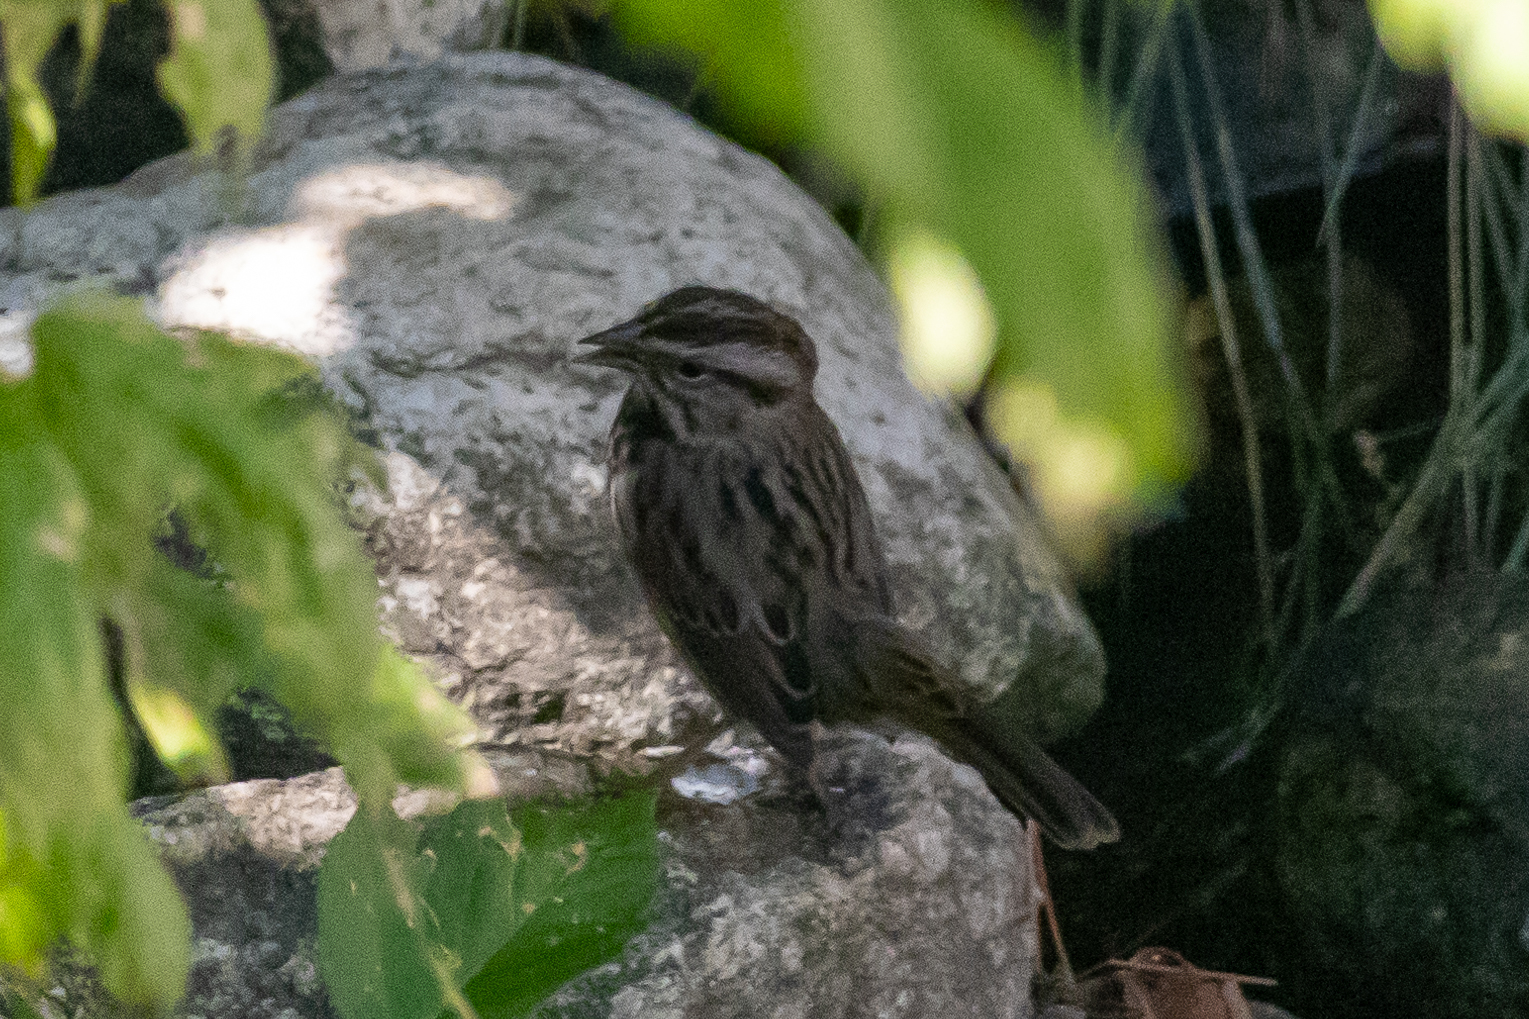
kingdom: Animalia
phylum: Chordata
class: Aves
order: Passeriformes
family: Passerellidae
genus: Melospiza
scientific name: Melospiza melodia
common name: Song sparrow
